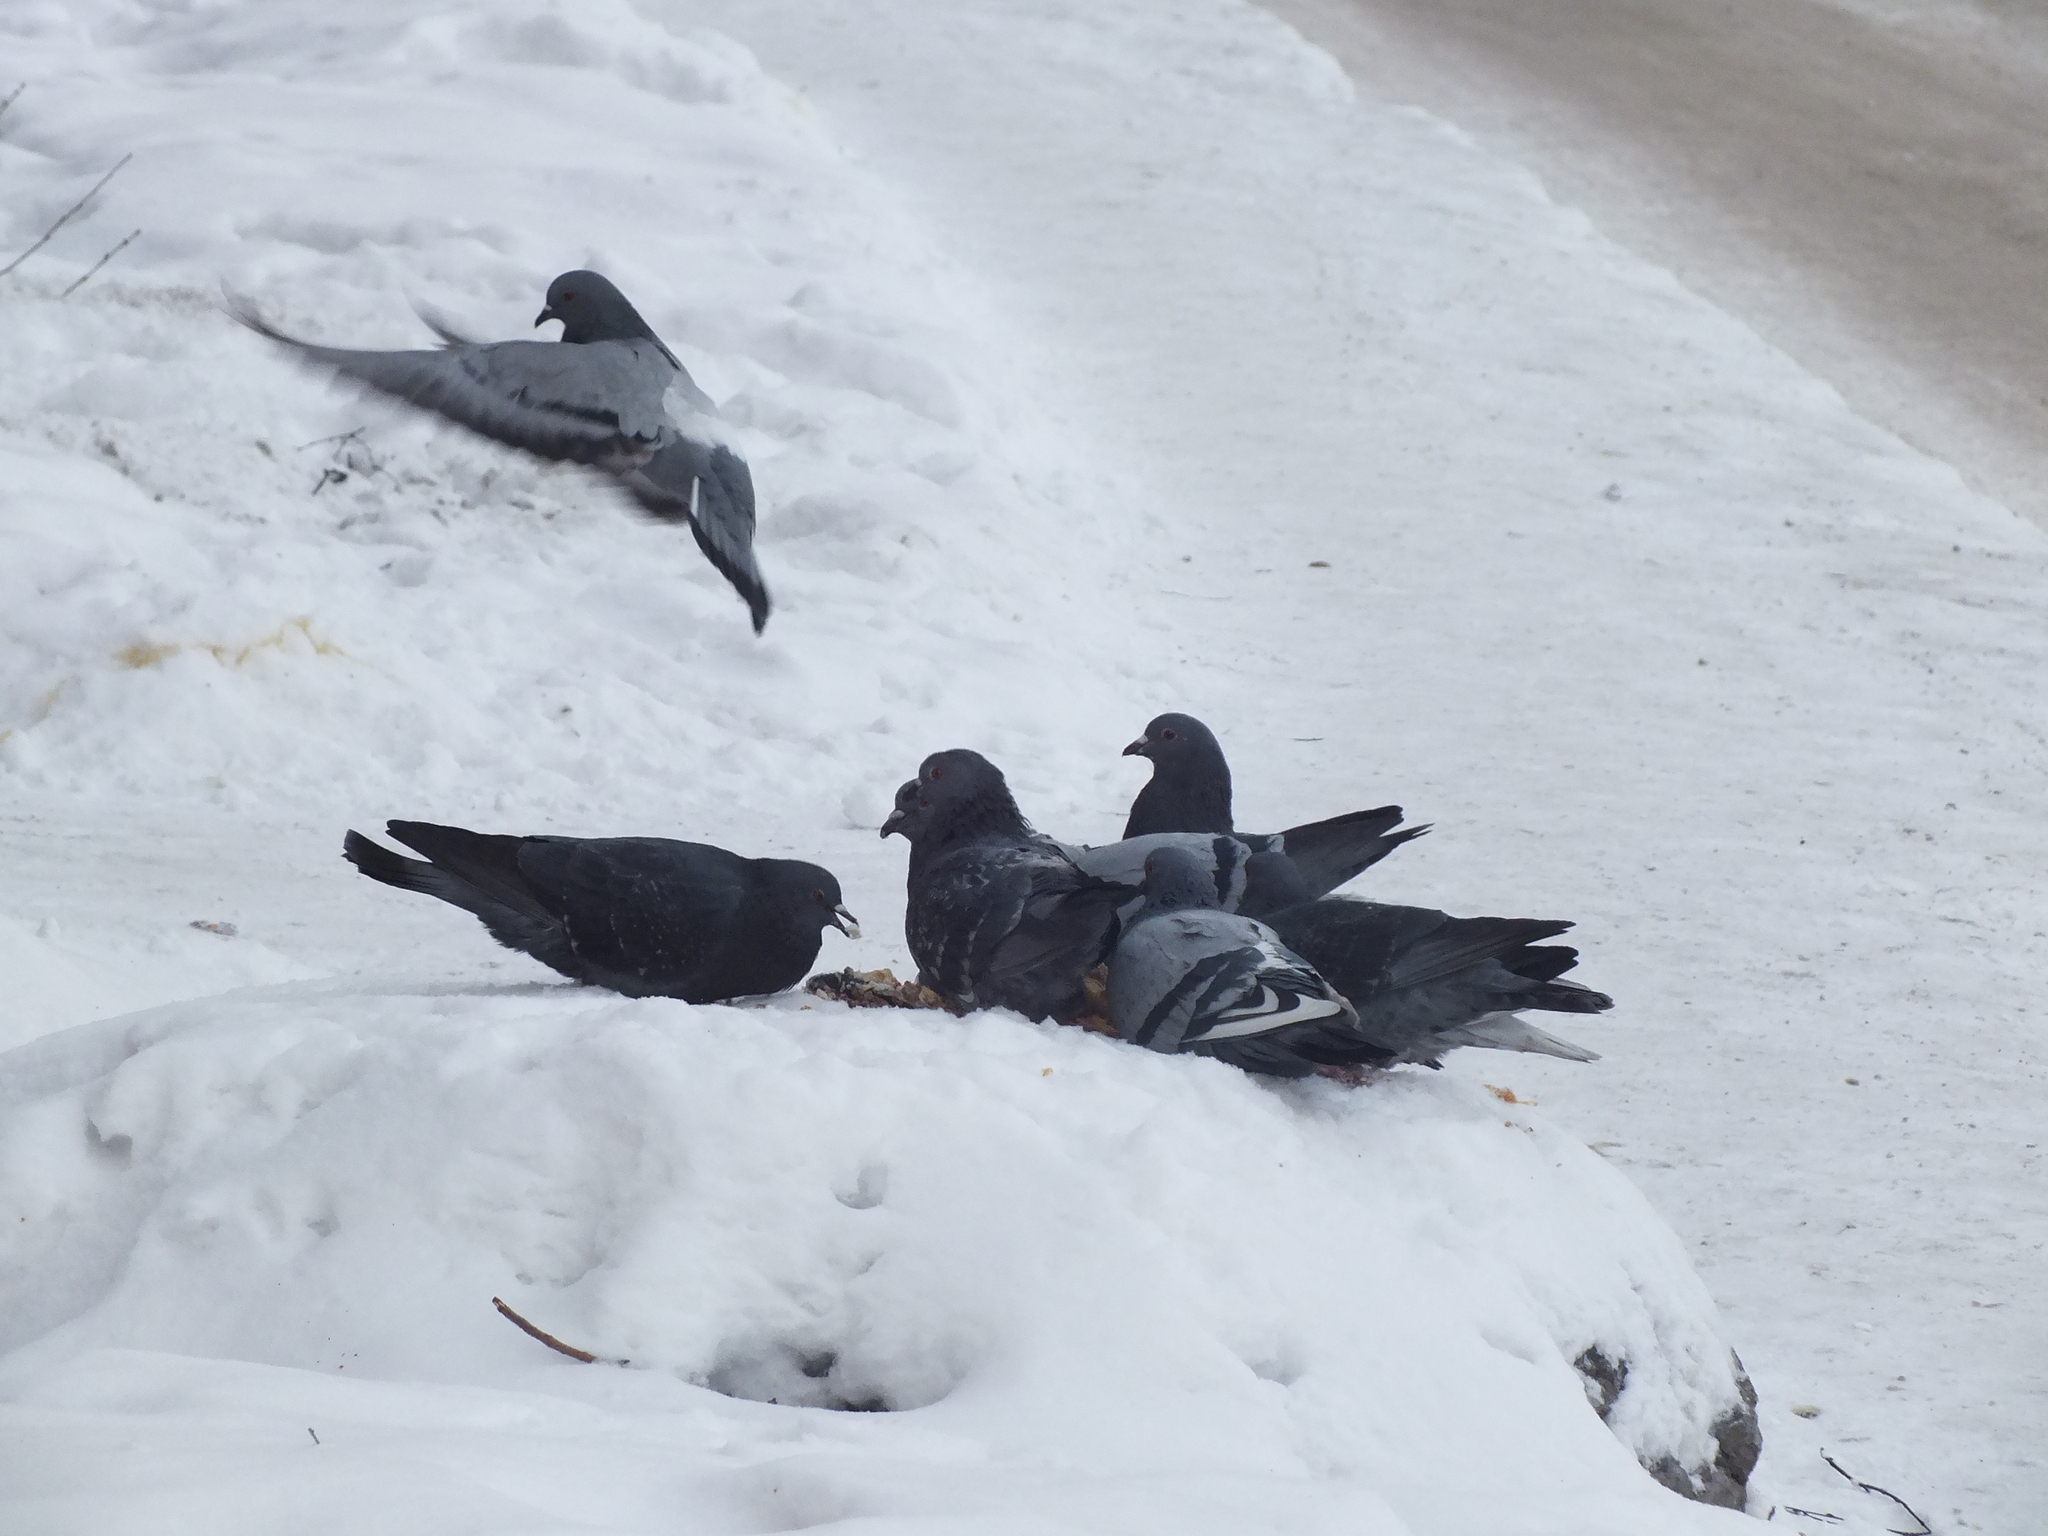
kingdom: Animalia
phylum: Chordata
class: Aves
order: Columbiformes
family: Columbidae
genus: Columba
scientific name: Columba livia
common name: Rock pigeon
